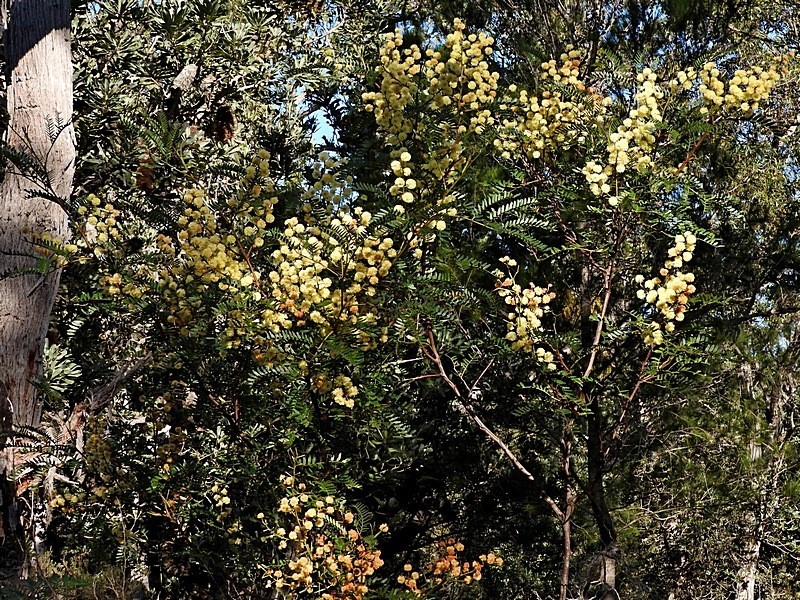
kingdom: Plantae
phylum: Tracheophyta
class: Magnoliopsida
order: Fabales
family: Fabaceae
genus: Acacia
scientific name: Acacia terminalis
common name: Cedar wattle
